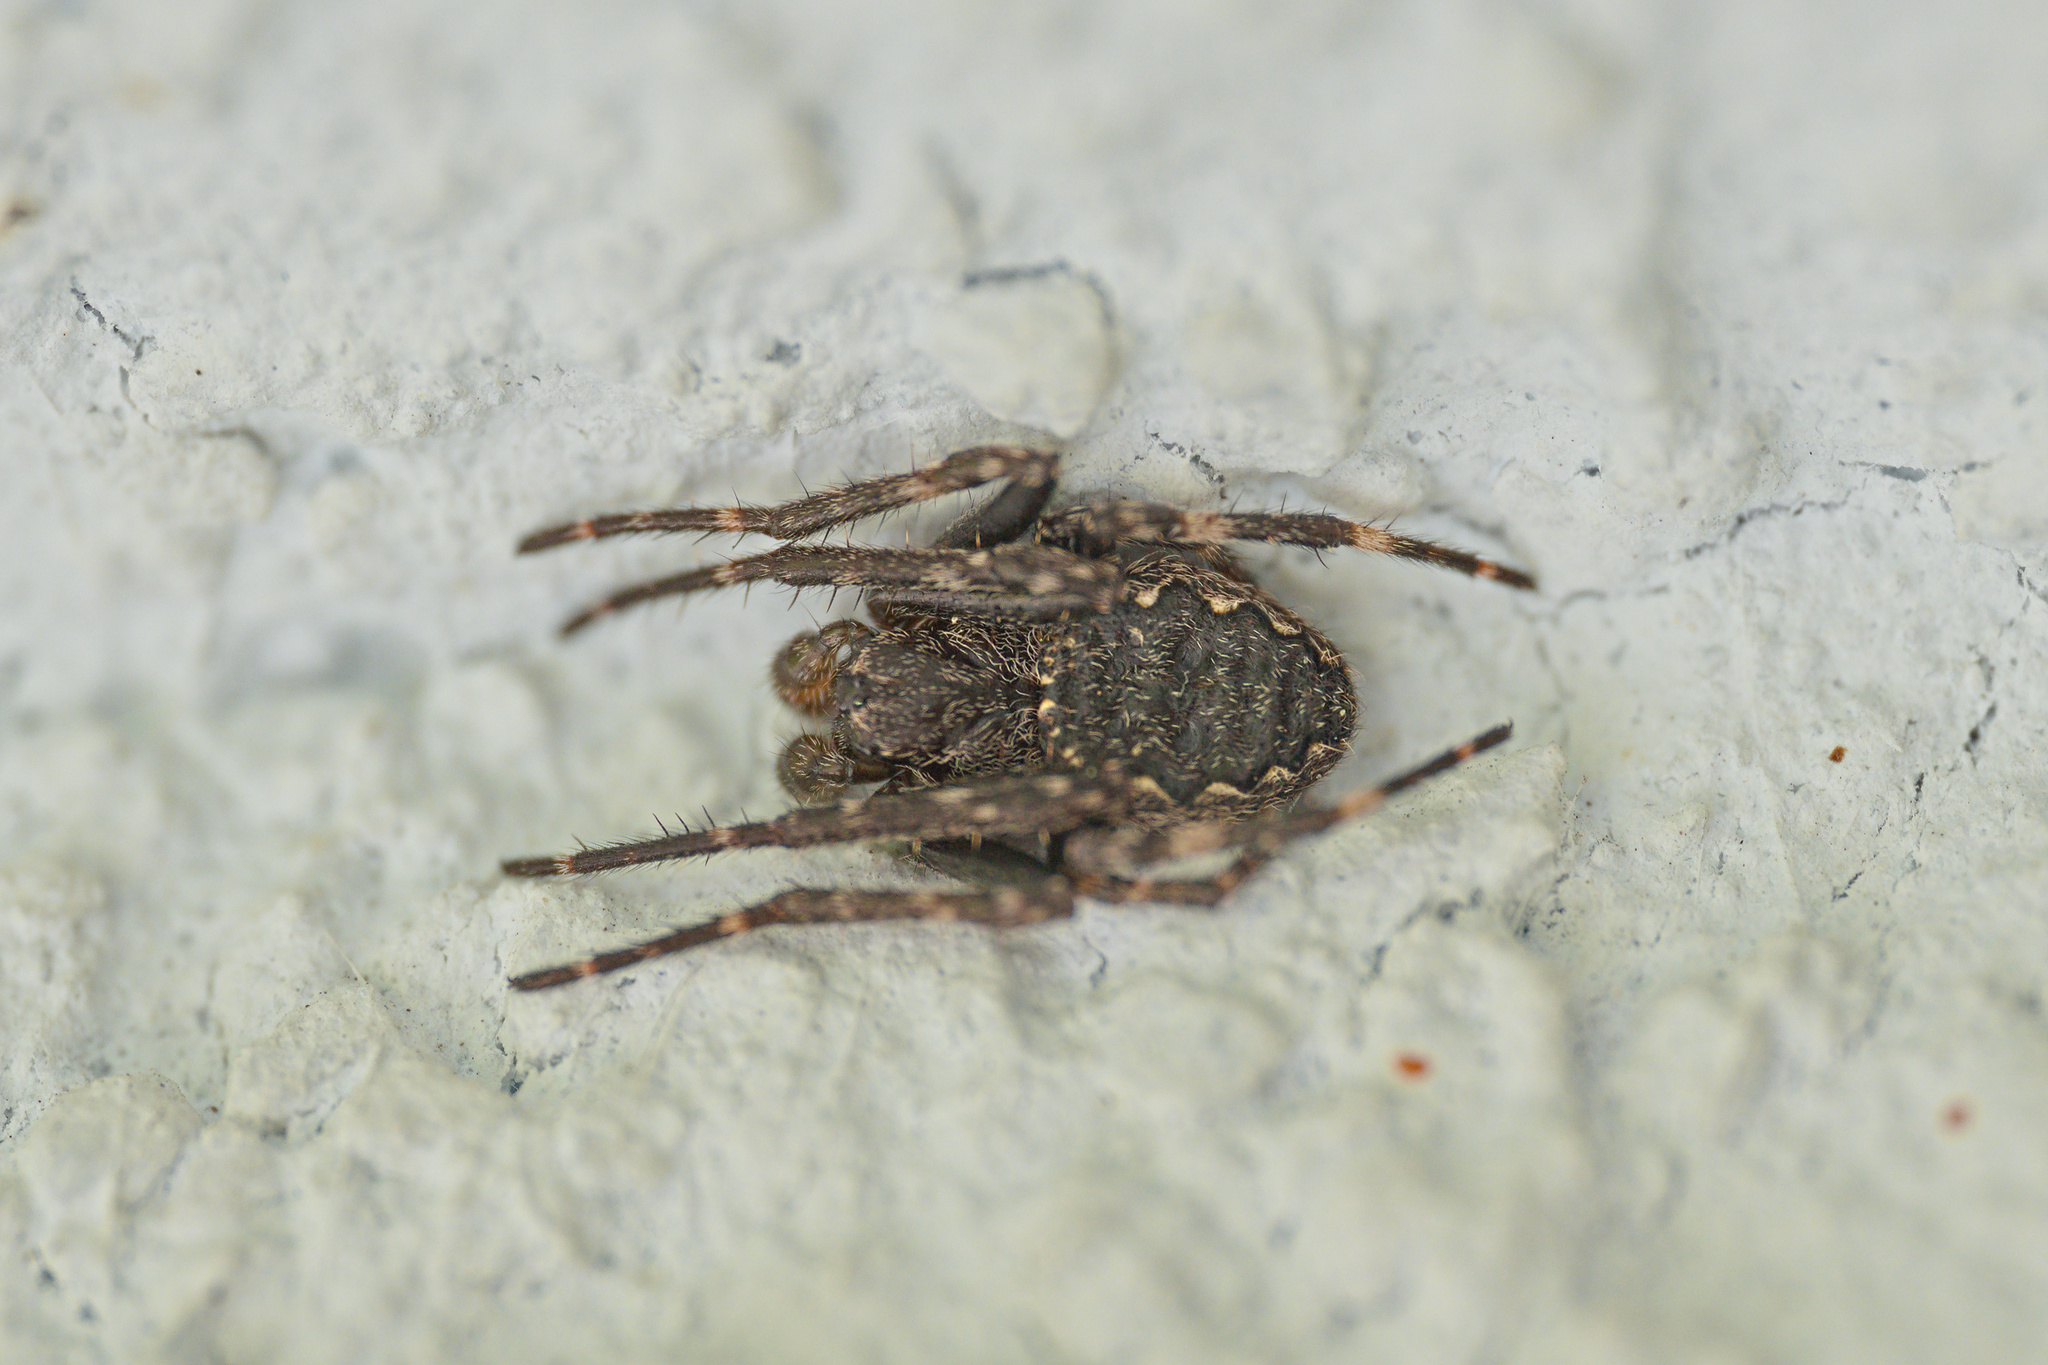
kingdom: Animalia
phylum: Arthropoda
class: Arachnida
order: Araneae
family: Araneidae
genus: Nuctenea
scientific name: Nuctenea umbratica
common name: Toad spider
